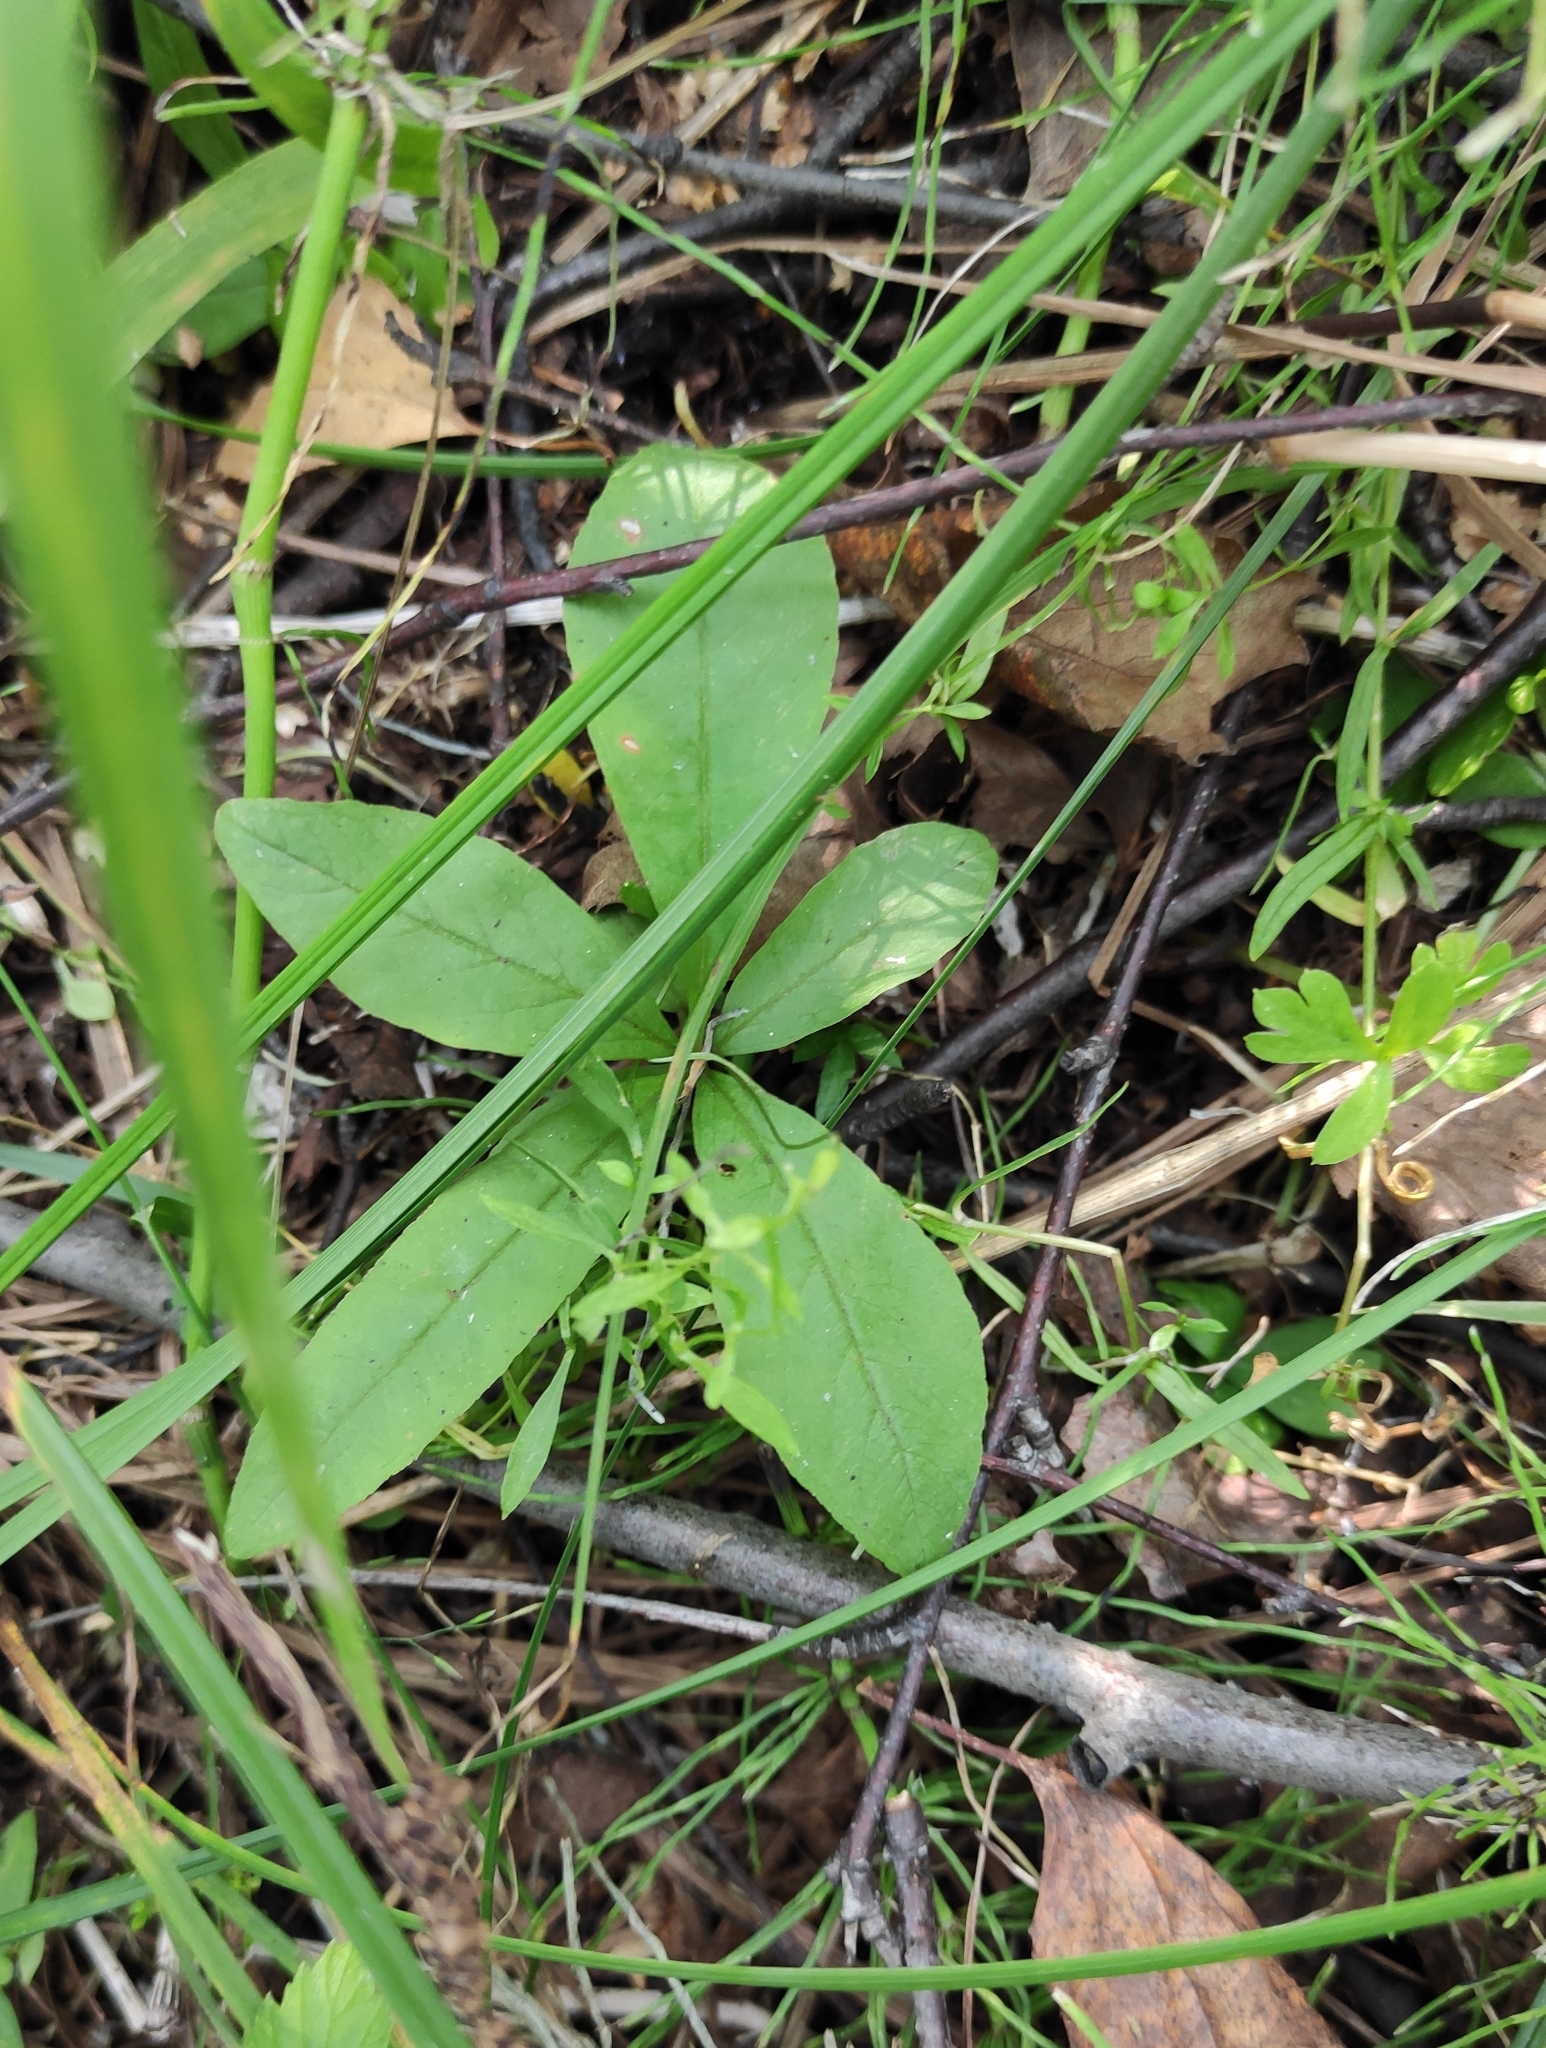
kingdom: Plantae
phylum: Tracheophyta
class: Magnoliopsida
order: Ericales
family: Primulaceae
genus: Lysimachia
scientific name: Lysimachia europaea
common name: Arctic starflower
